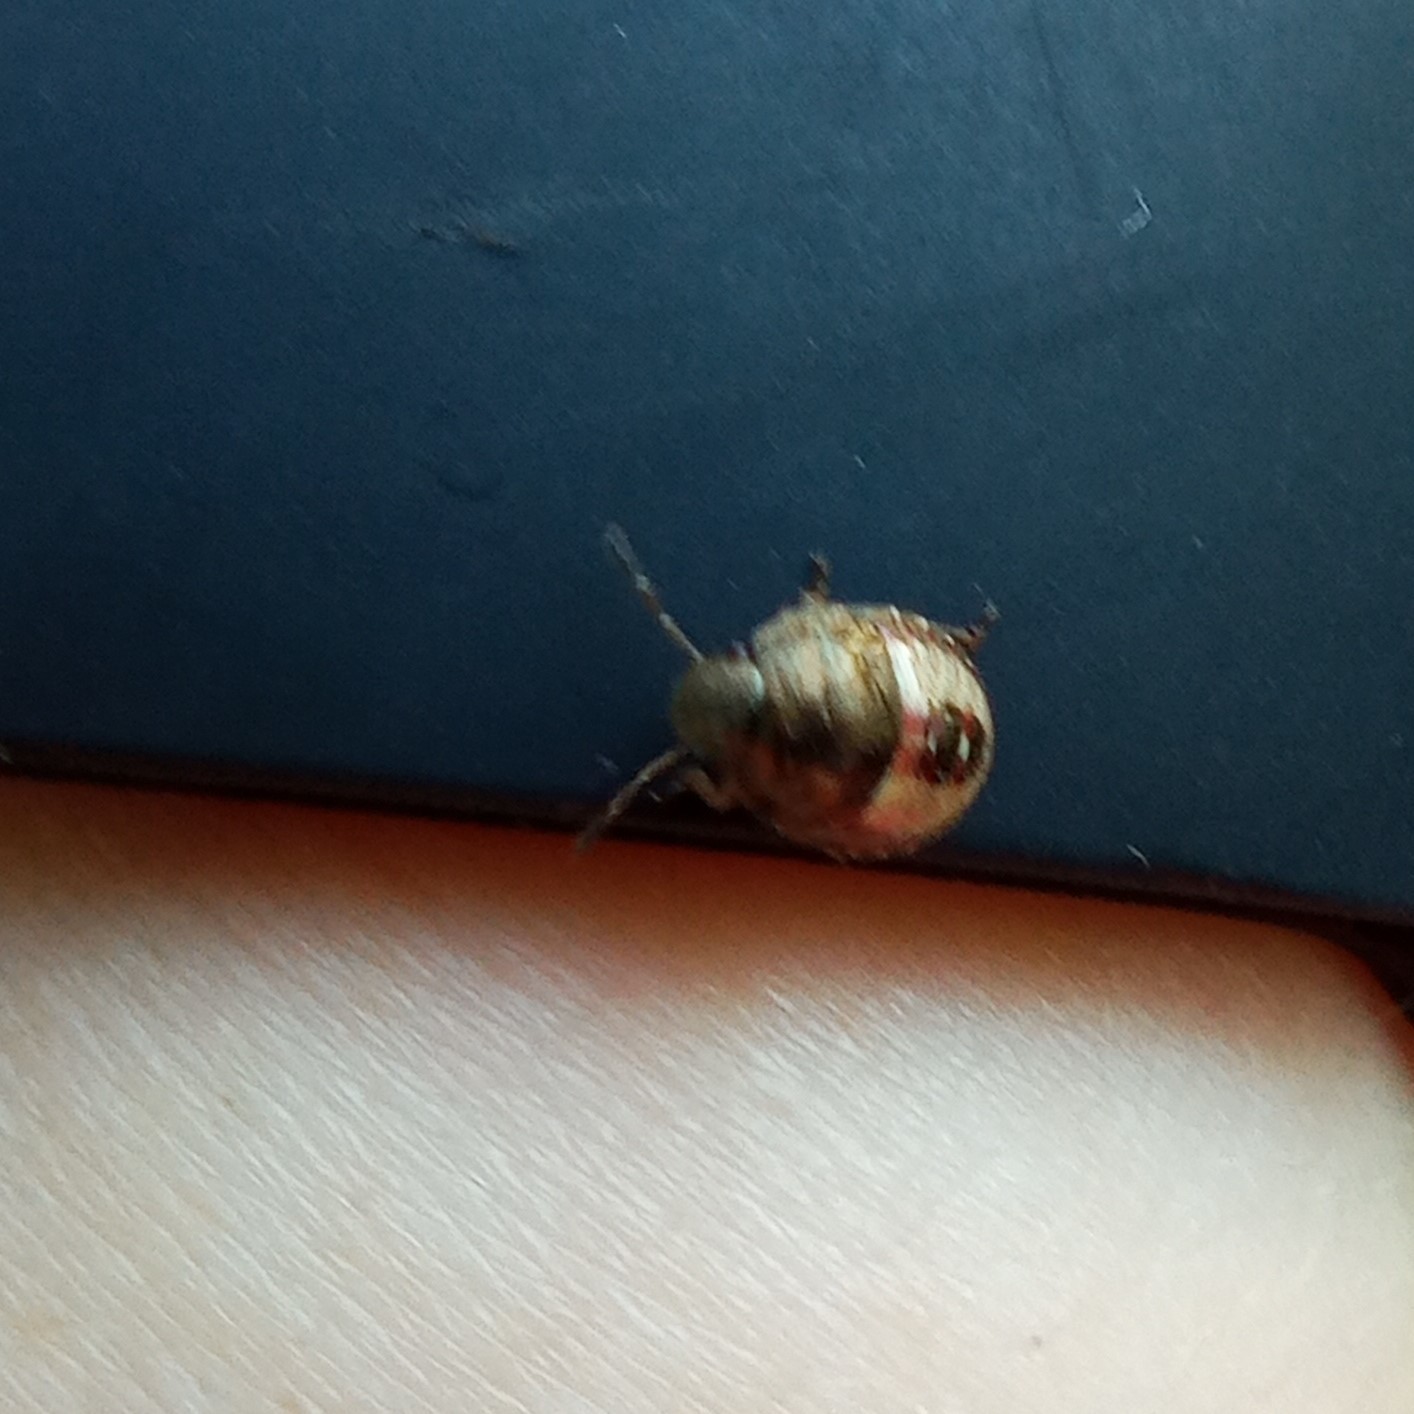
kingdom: Animalia
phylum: Arthropoda
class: Insecta
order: Hemiptera
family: Pentatomidae
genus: Holcostethus
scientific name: Holcostethus strictus
